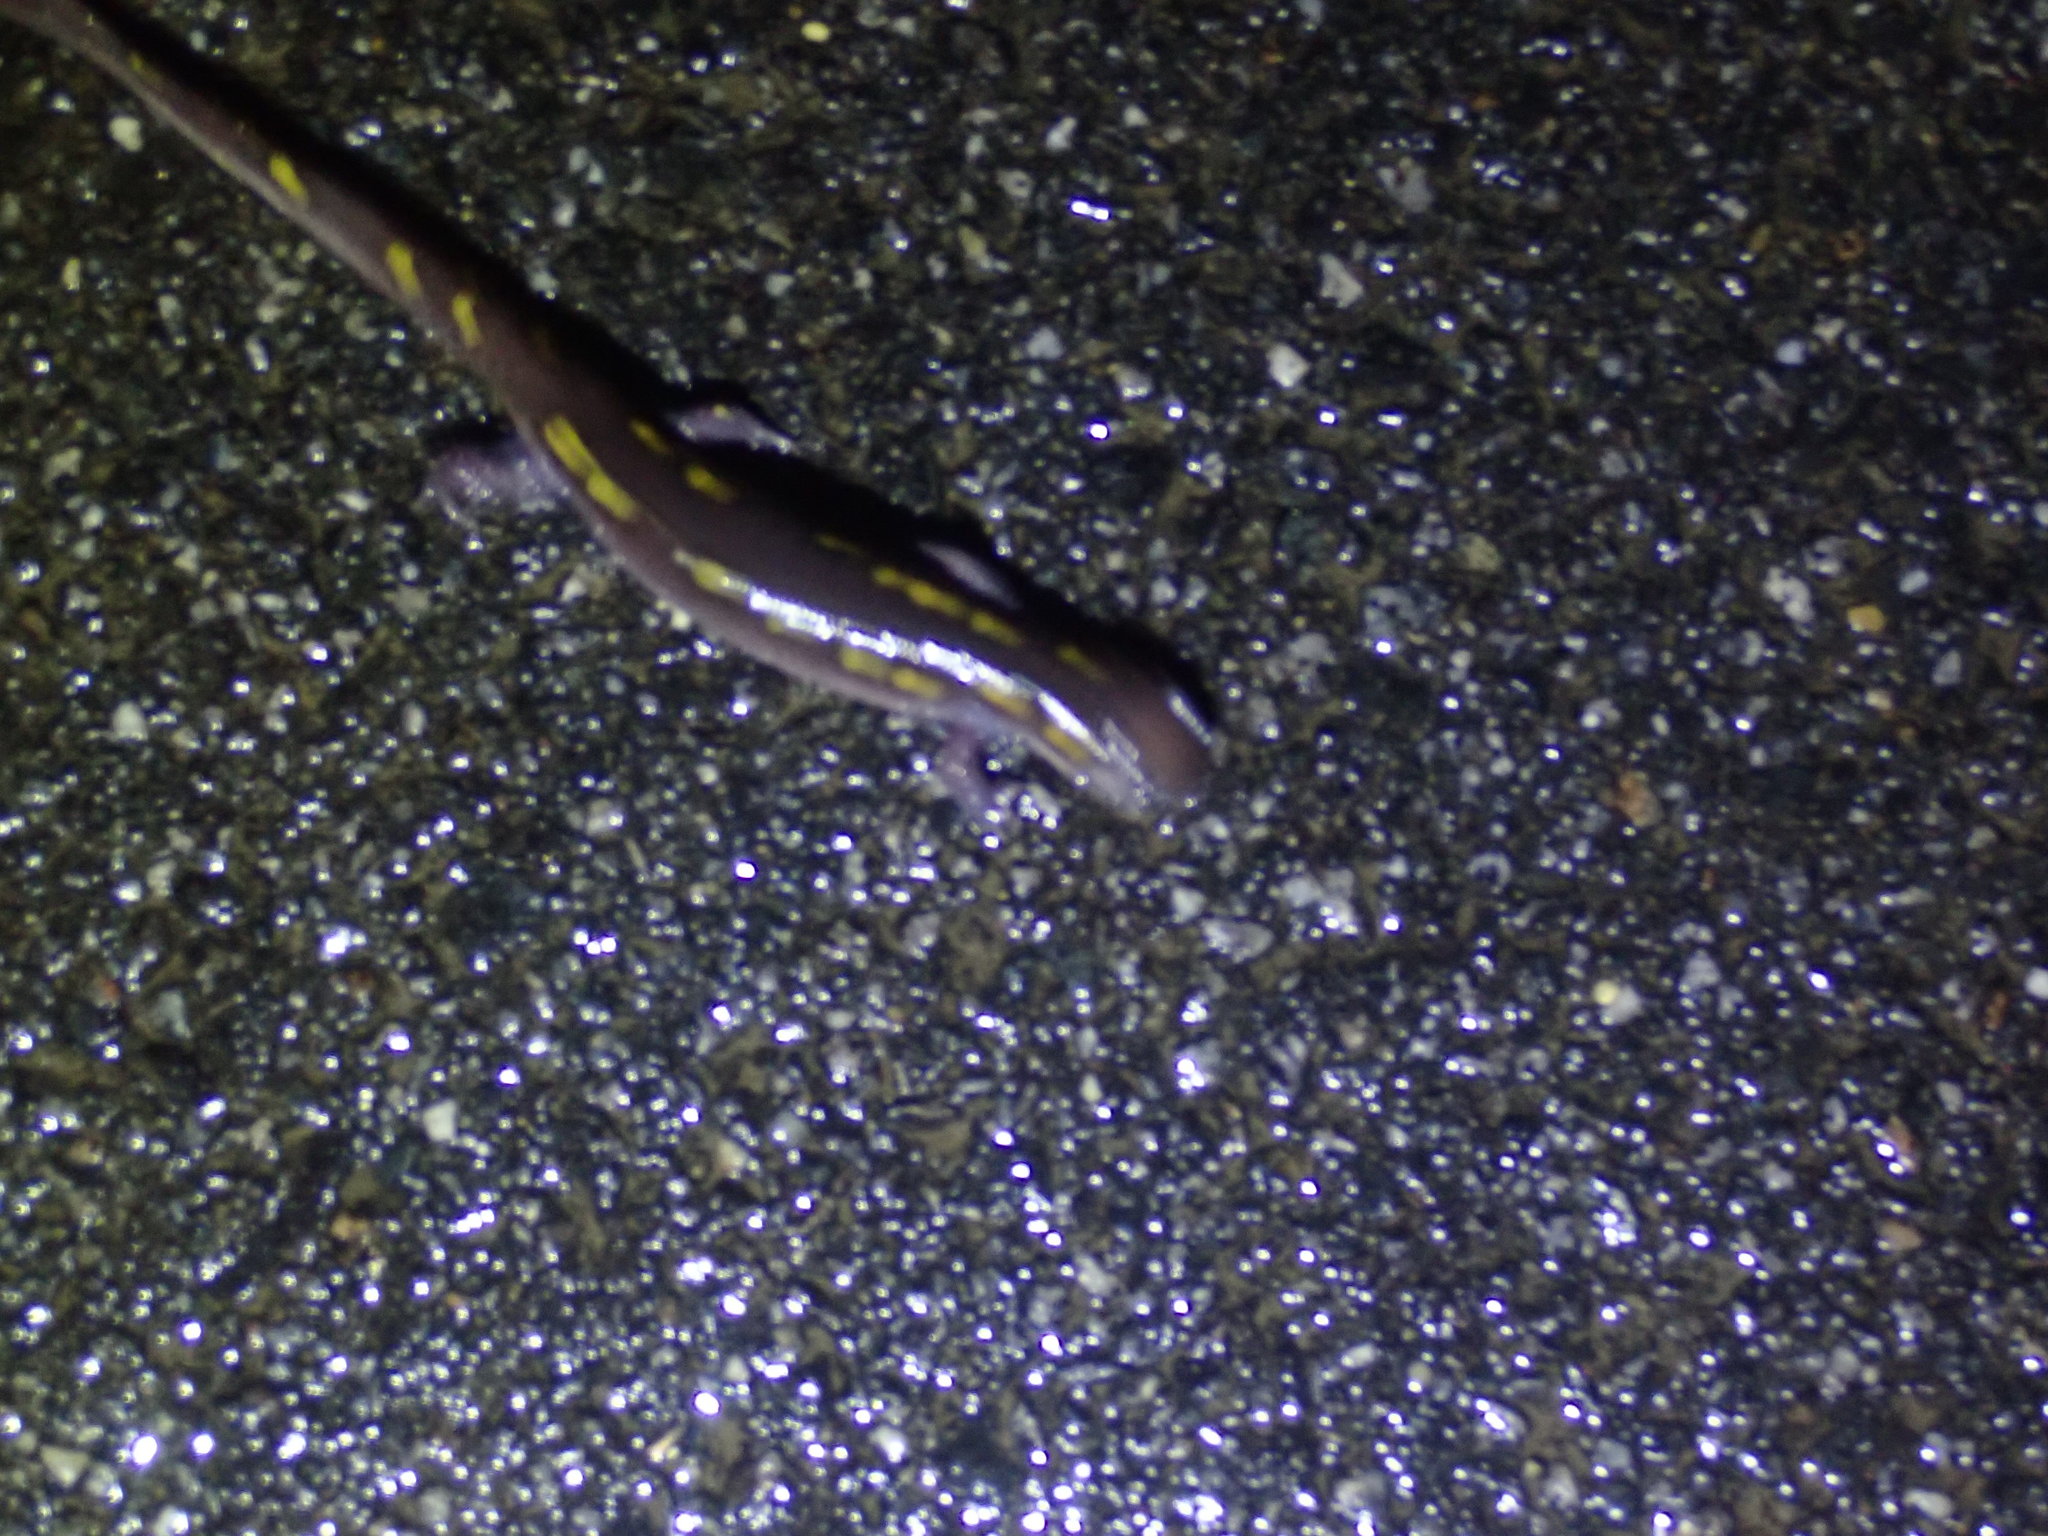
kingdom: Animalia
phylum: Chordata
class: Amphibia
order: Caudata
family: Ambystomatidae
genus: Ambystoma
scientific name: Ambystoma maculatum
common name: Spotted salamander
